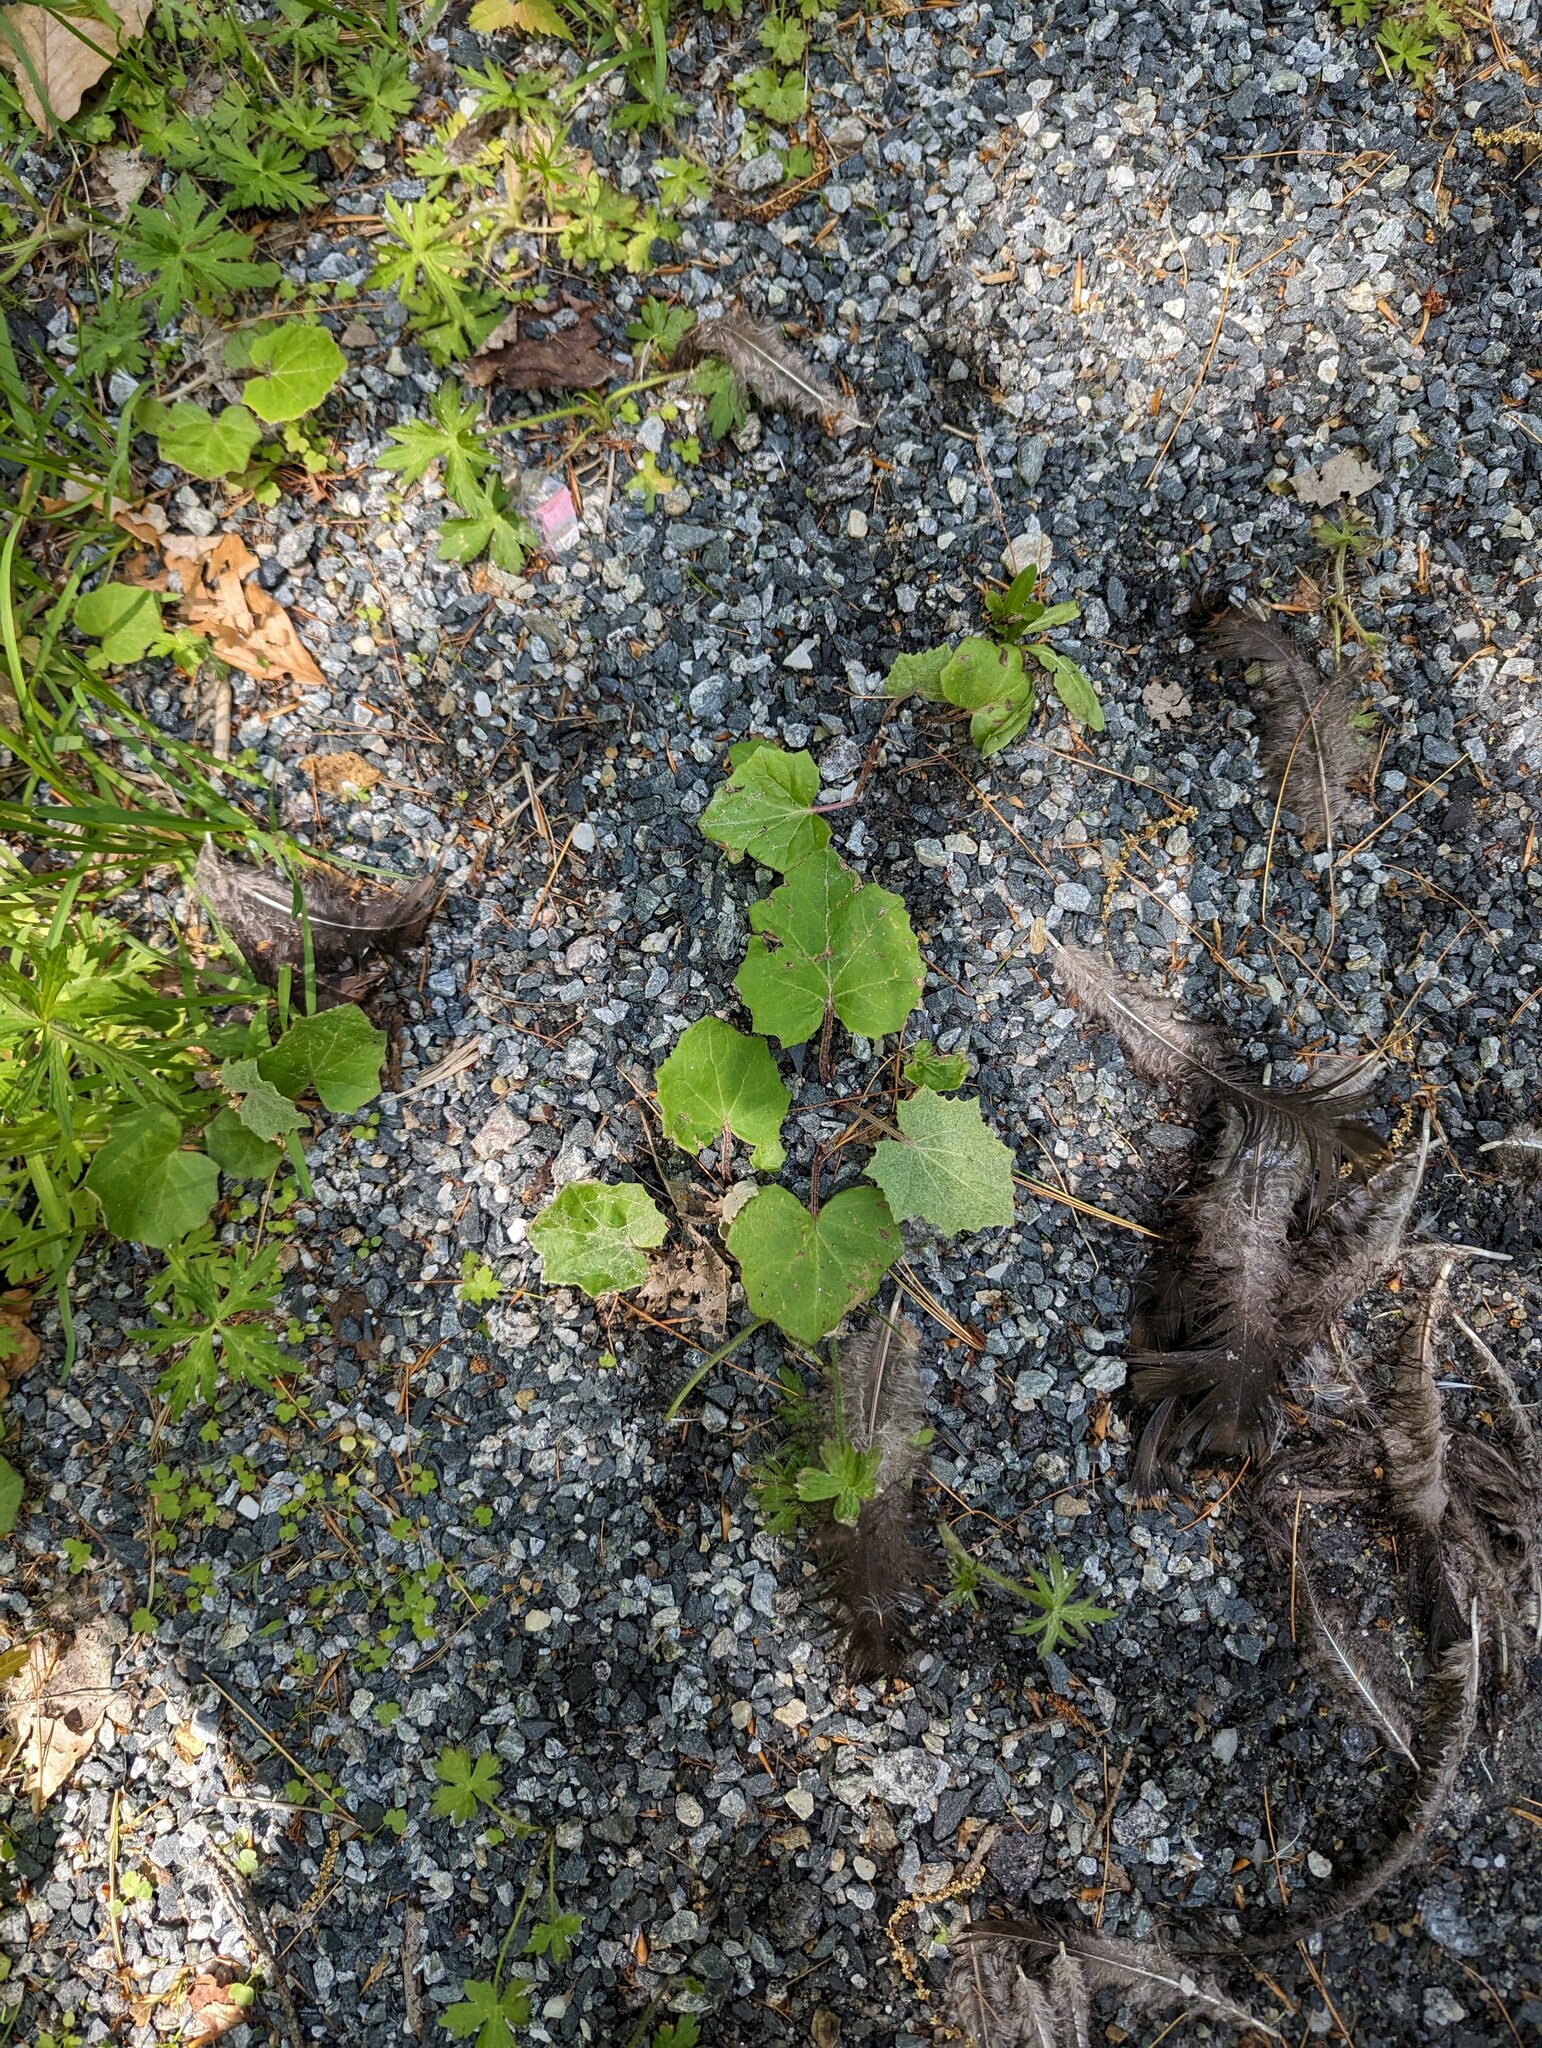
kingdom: Plantae
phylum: Tracheophyta
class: Magnoliopsida
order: Asterales
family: Asteraceae
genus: Tussilago
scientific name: Tussilago farfara
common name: Coltsfoot
